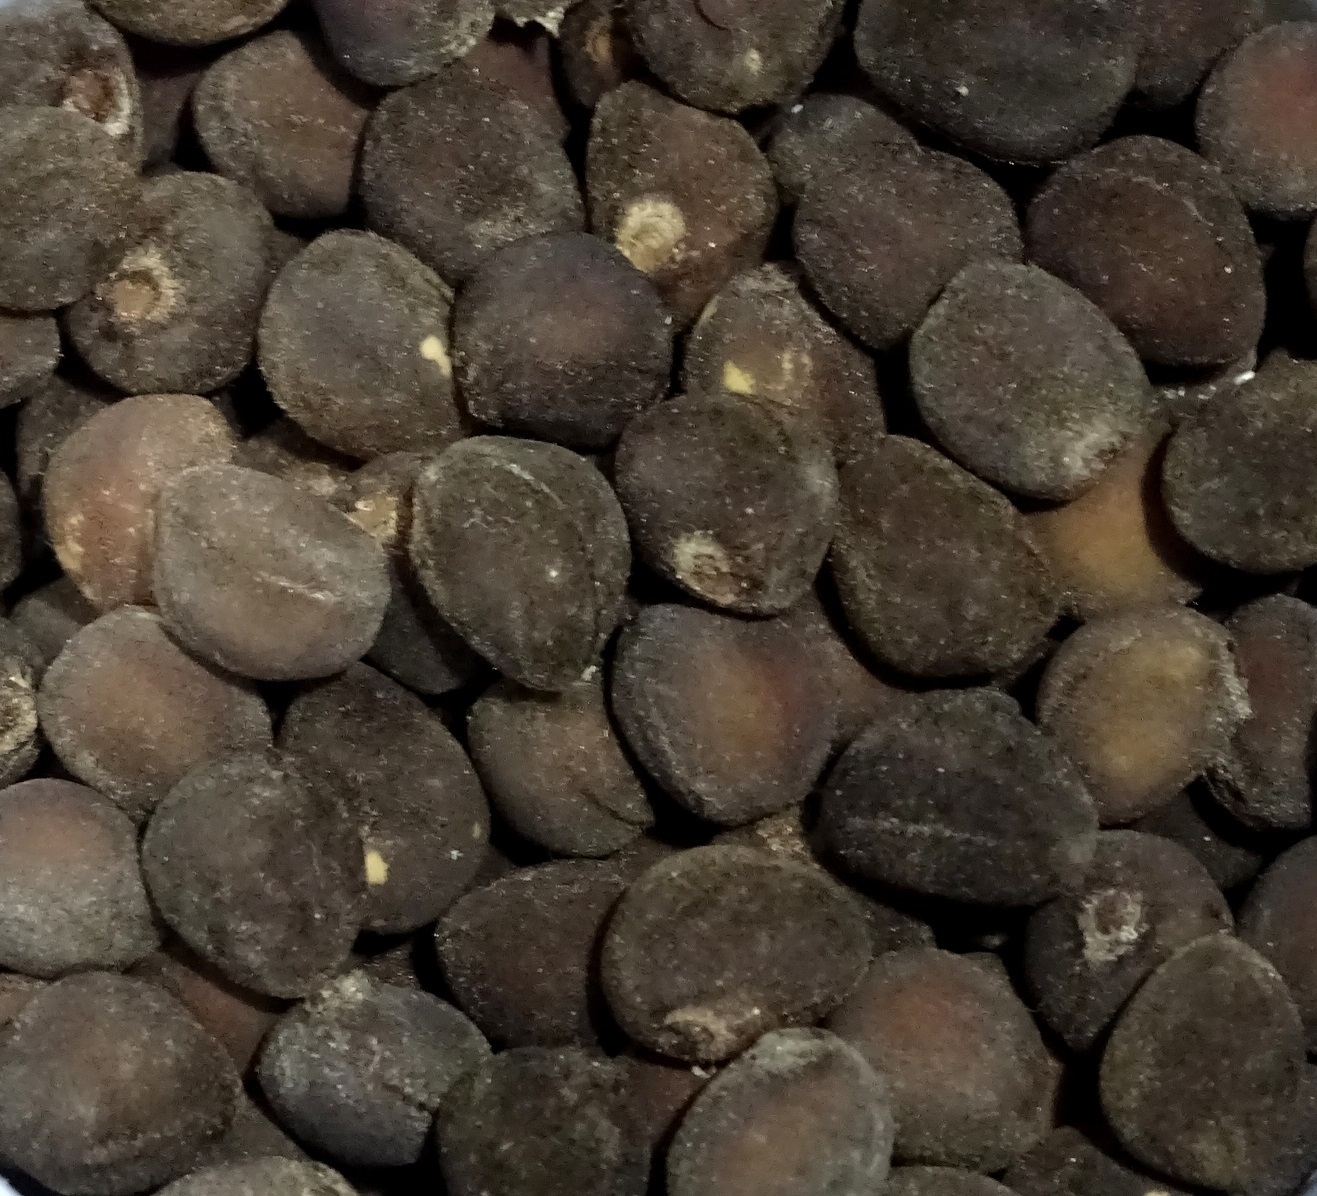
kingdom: Plantae
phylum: Tracheophyta
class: Magnoliopsida
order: Solanales
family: Convolvulaceae
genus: Ipomoea
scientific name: Ipomoea violacea
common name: Beach moonflower
